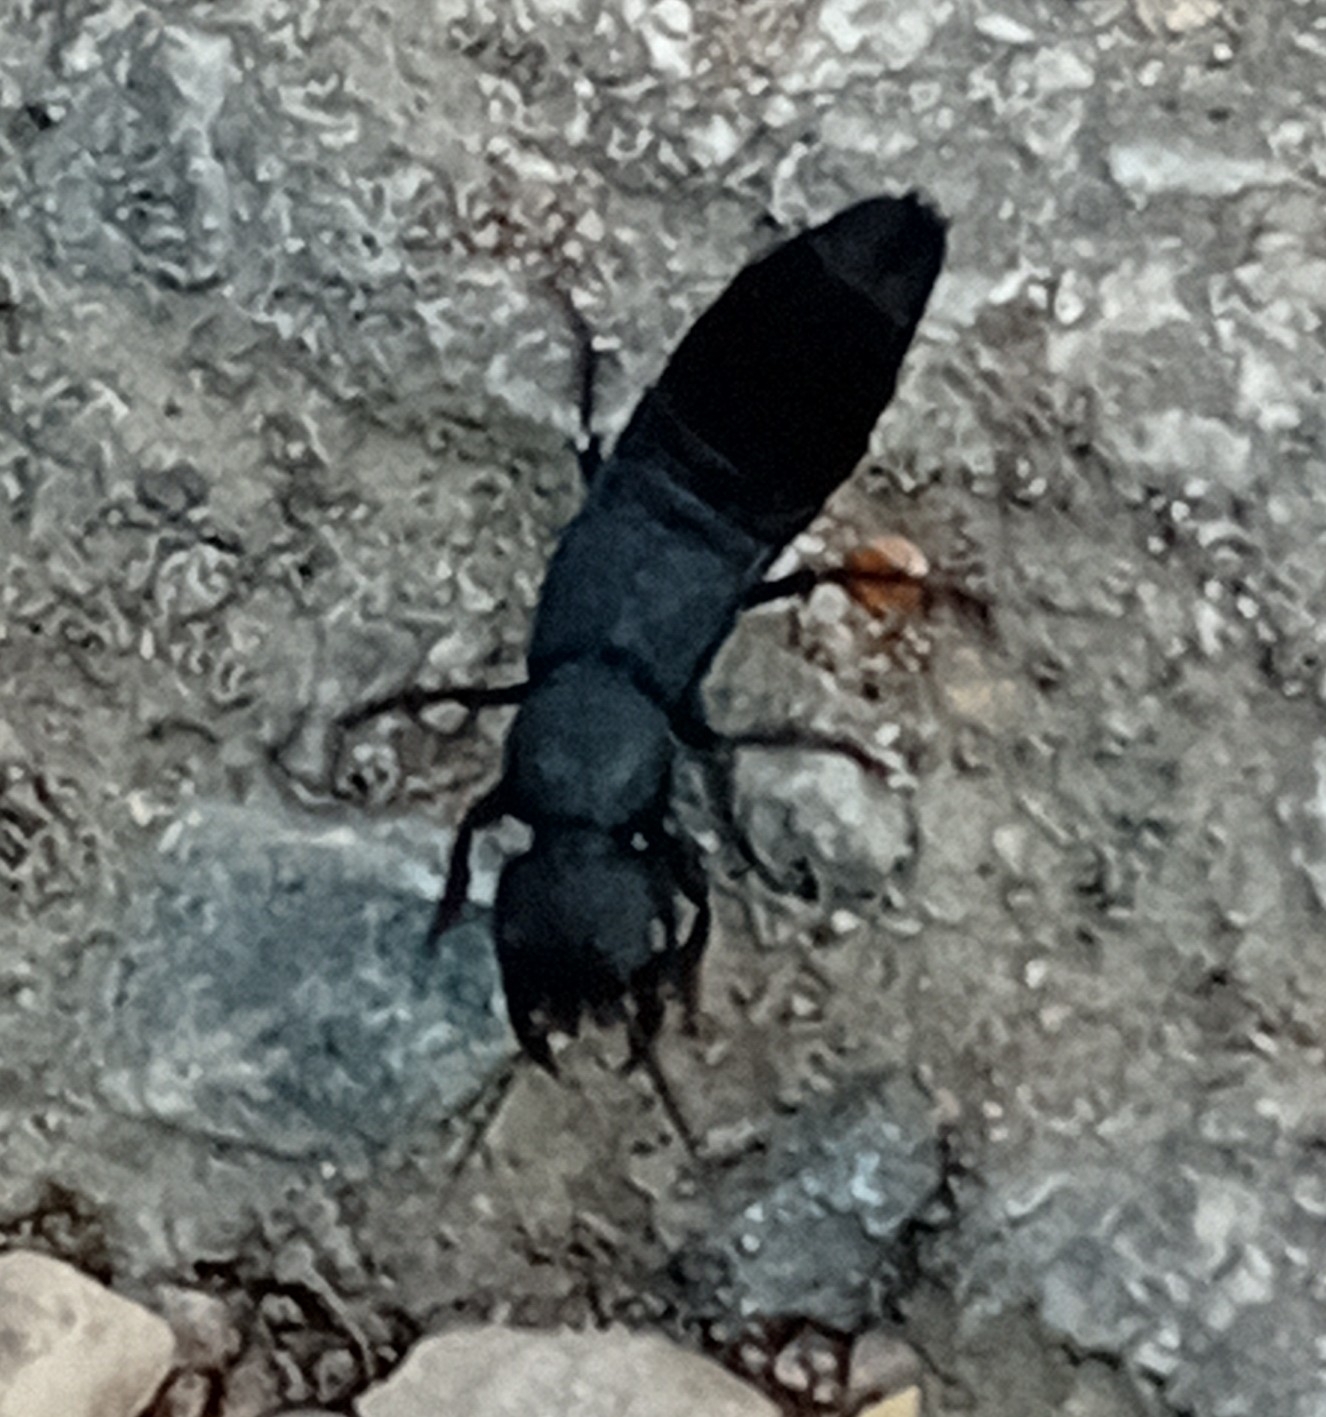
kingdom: Animalia
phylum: Arthropoda
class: Insecta
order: Coleoptera
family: Staphylinidae
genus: Ocypus
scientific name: Ocypus olens
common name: Devil's coach-horse
